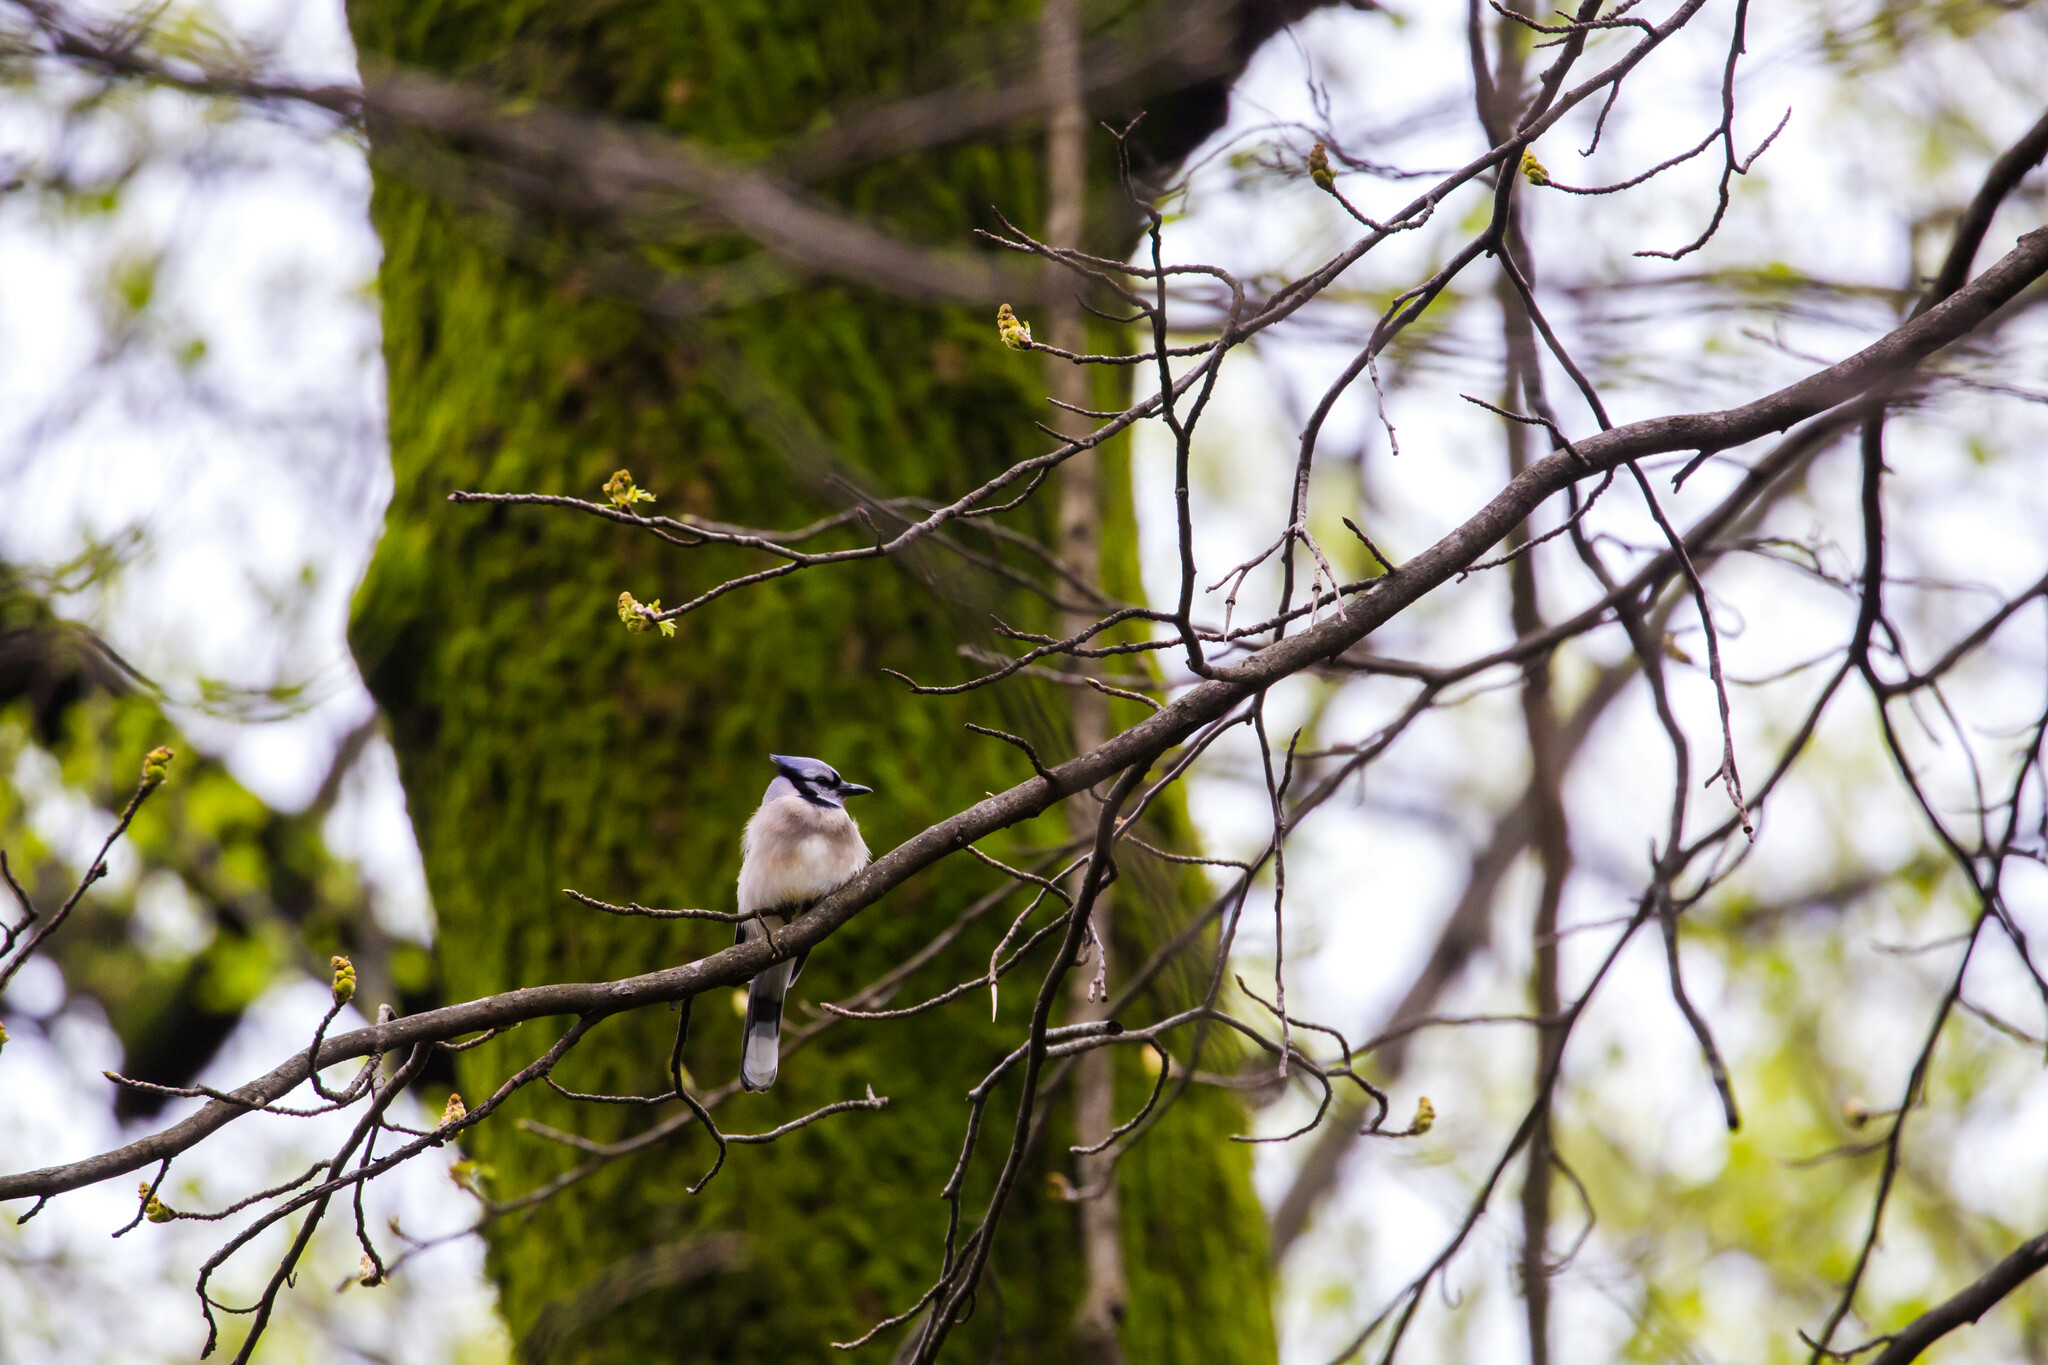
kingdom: Animalia
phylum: Chordata
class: Aves
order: Passeriformes
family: Corvidae
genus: Cyanocitta
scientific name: Cyanocitta cristata
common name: Blue jay
